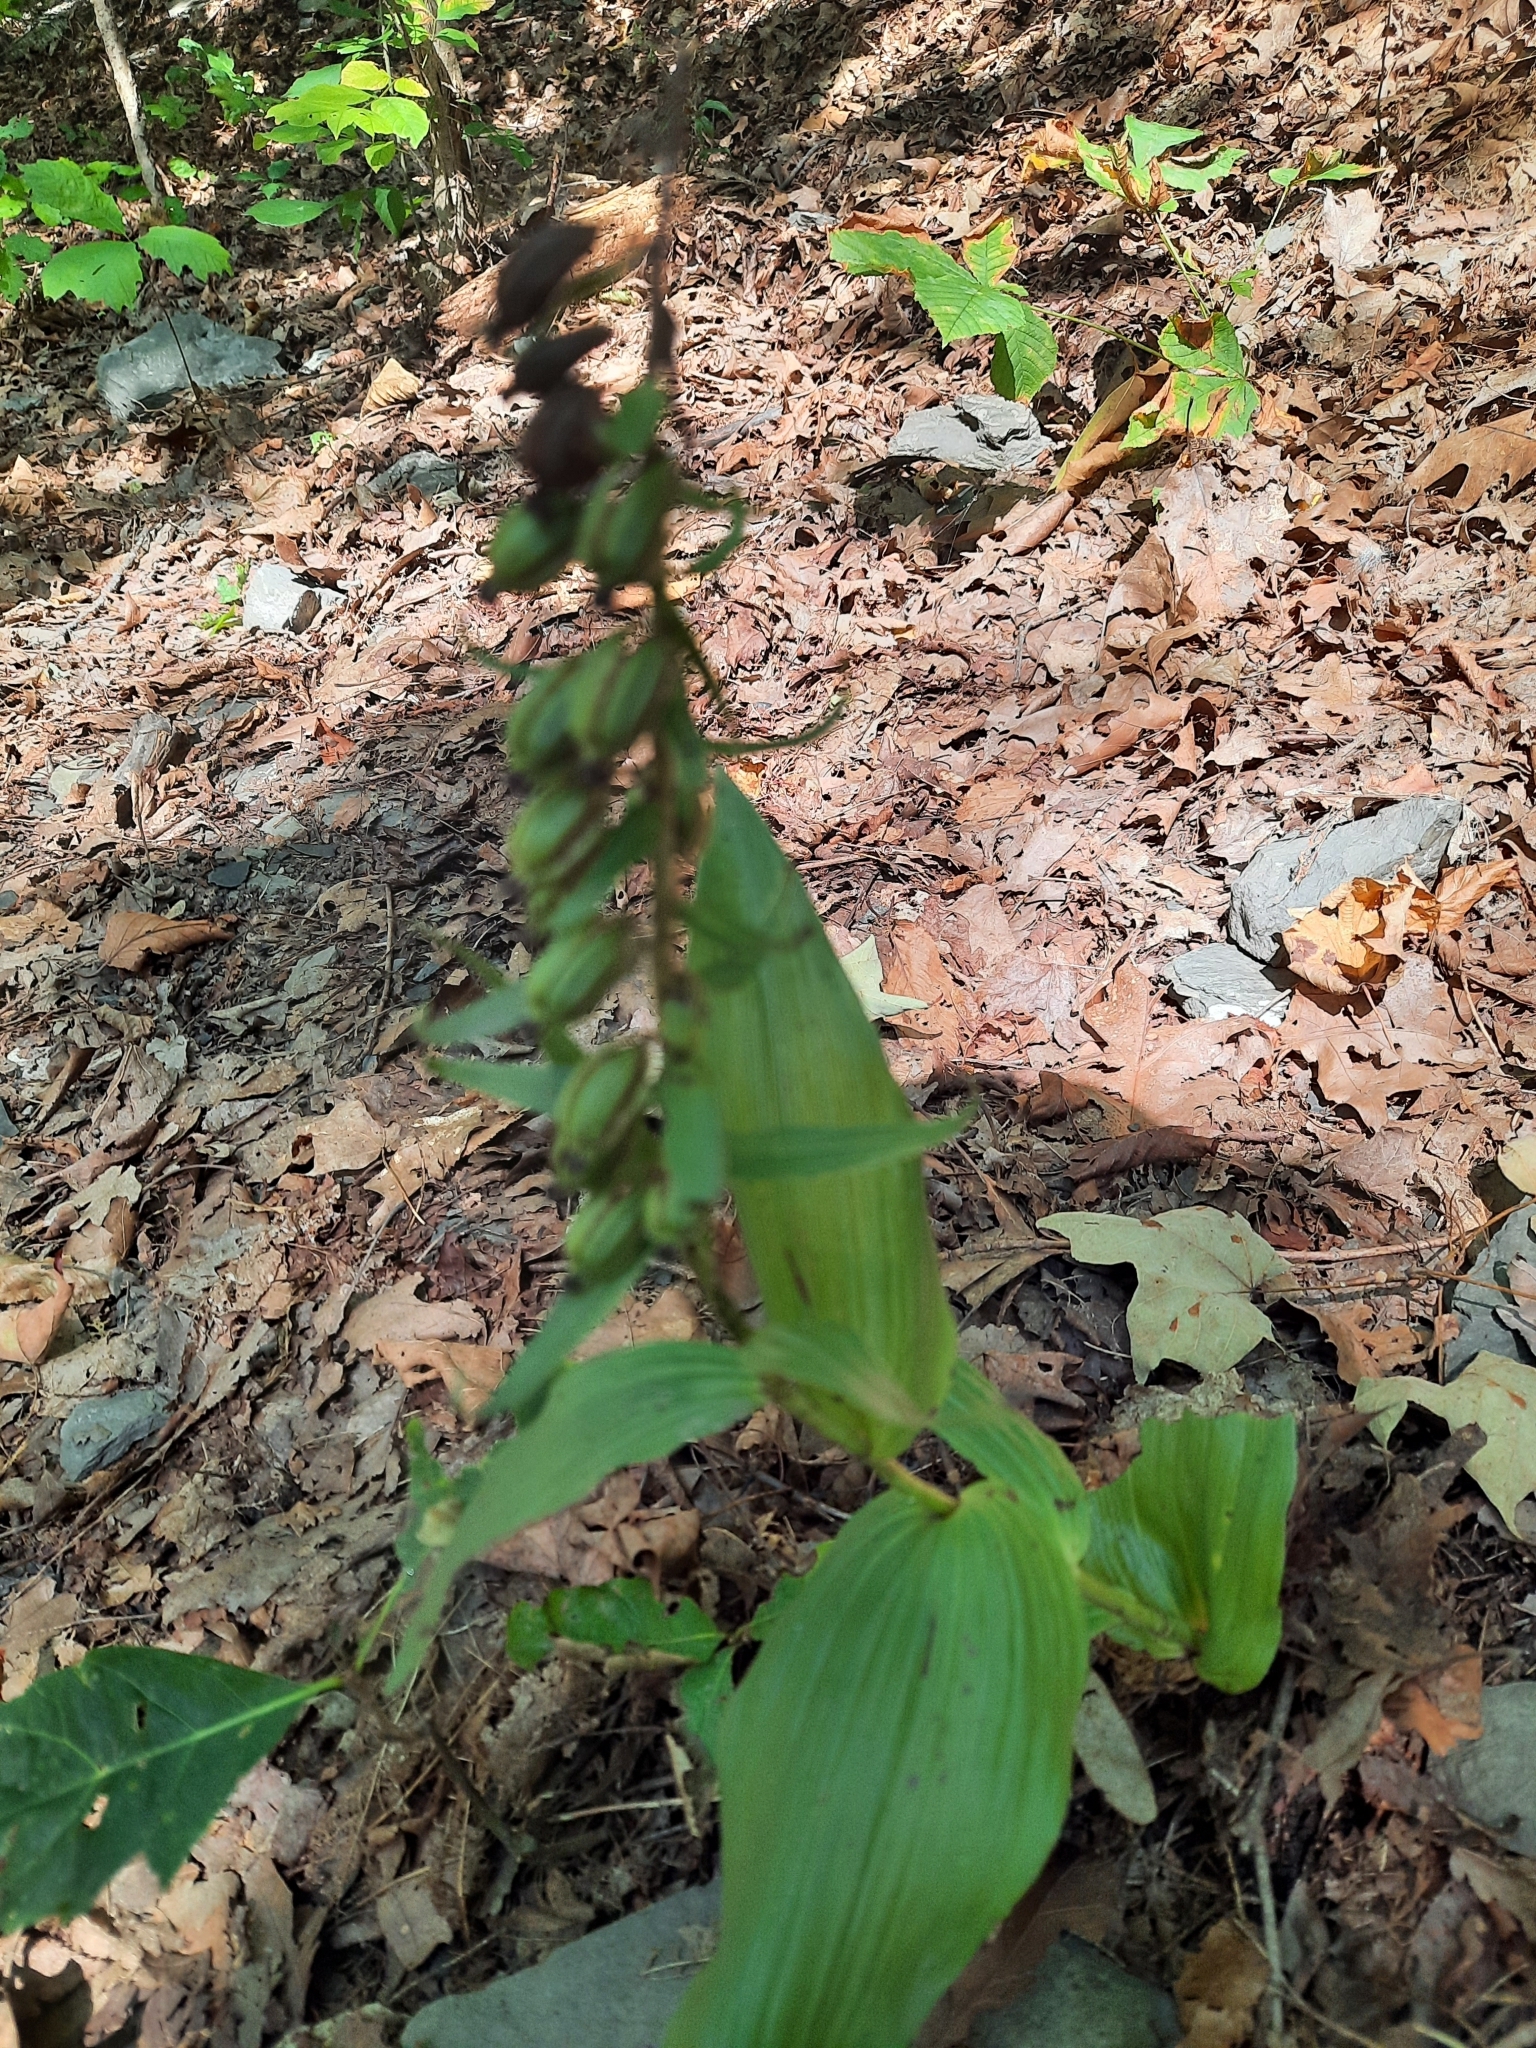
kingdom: Plantae
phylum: Tracheophyta
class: Liliopsida
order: Asparagales
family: Orchidaceae
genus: Epipactis
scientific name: Epipactis helleborine
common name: Broad-leaved helleborine
